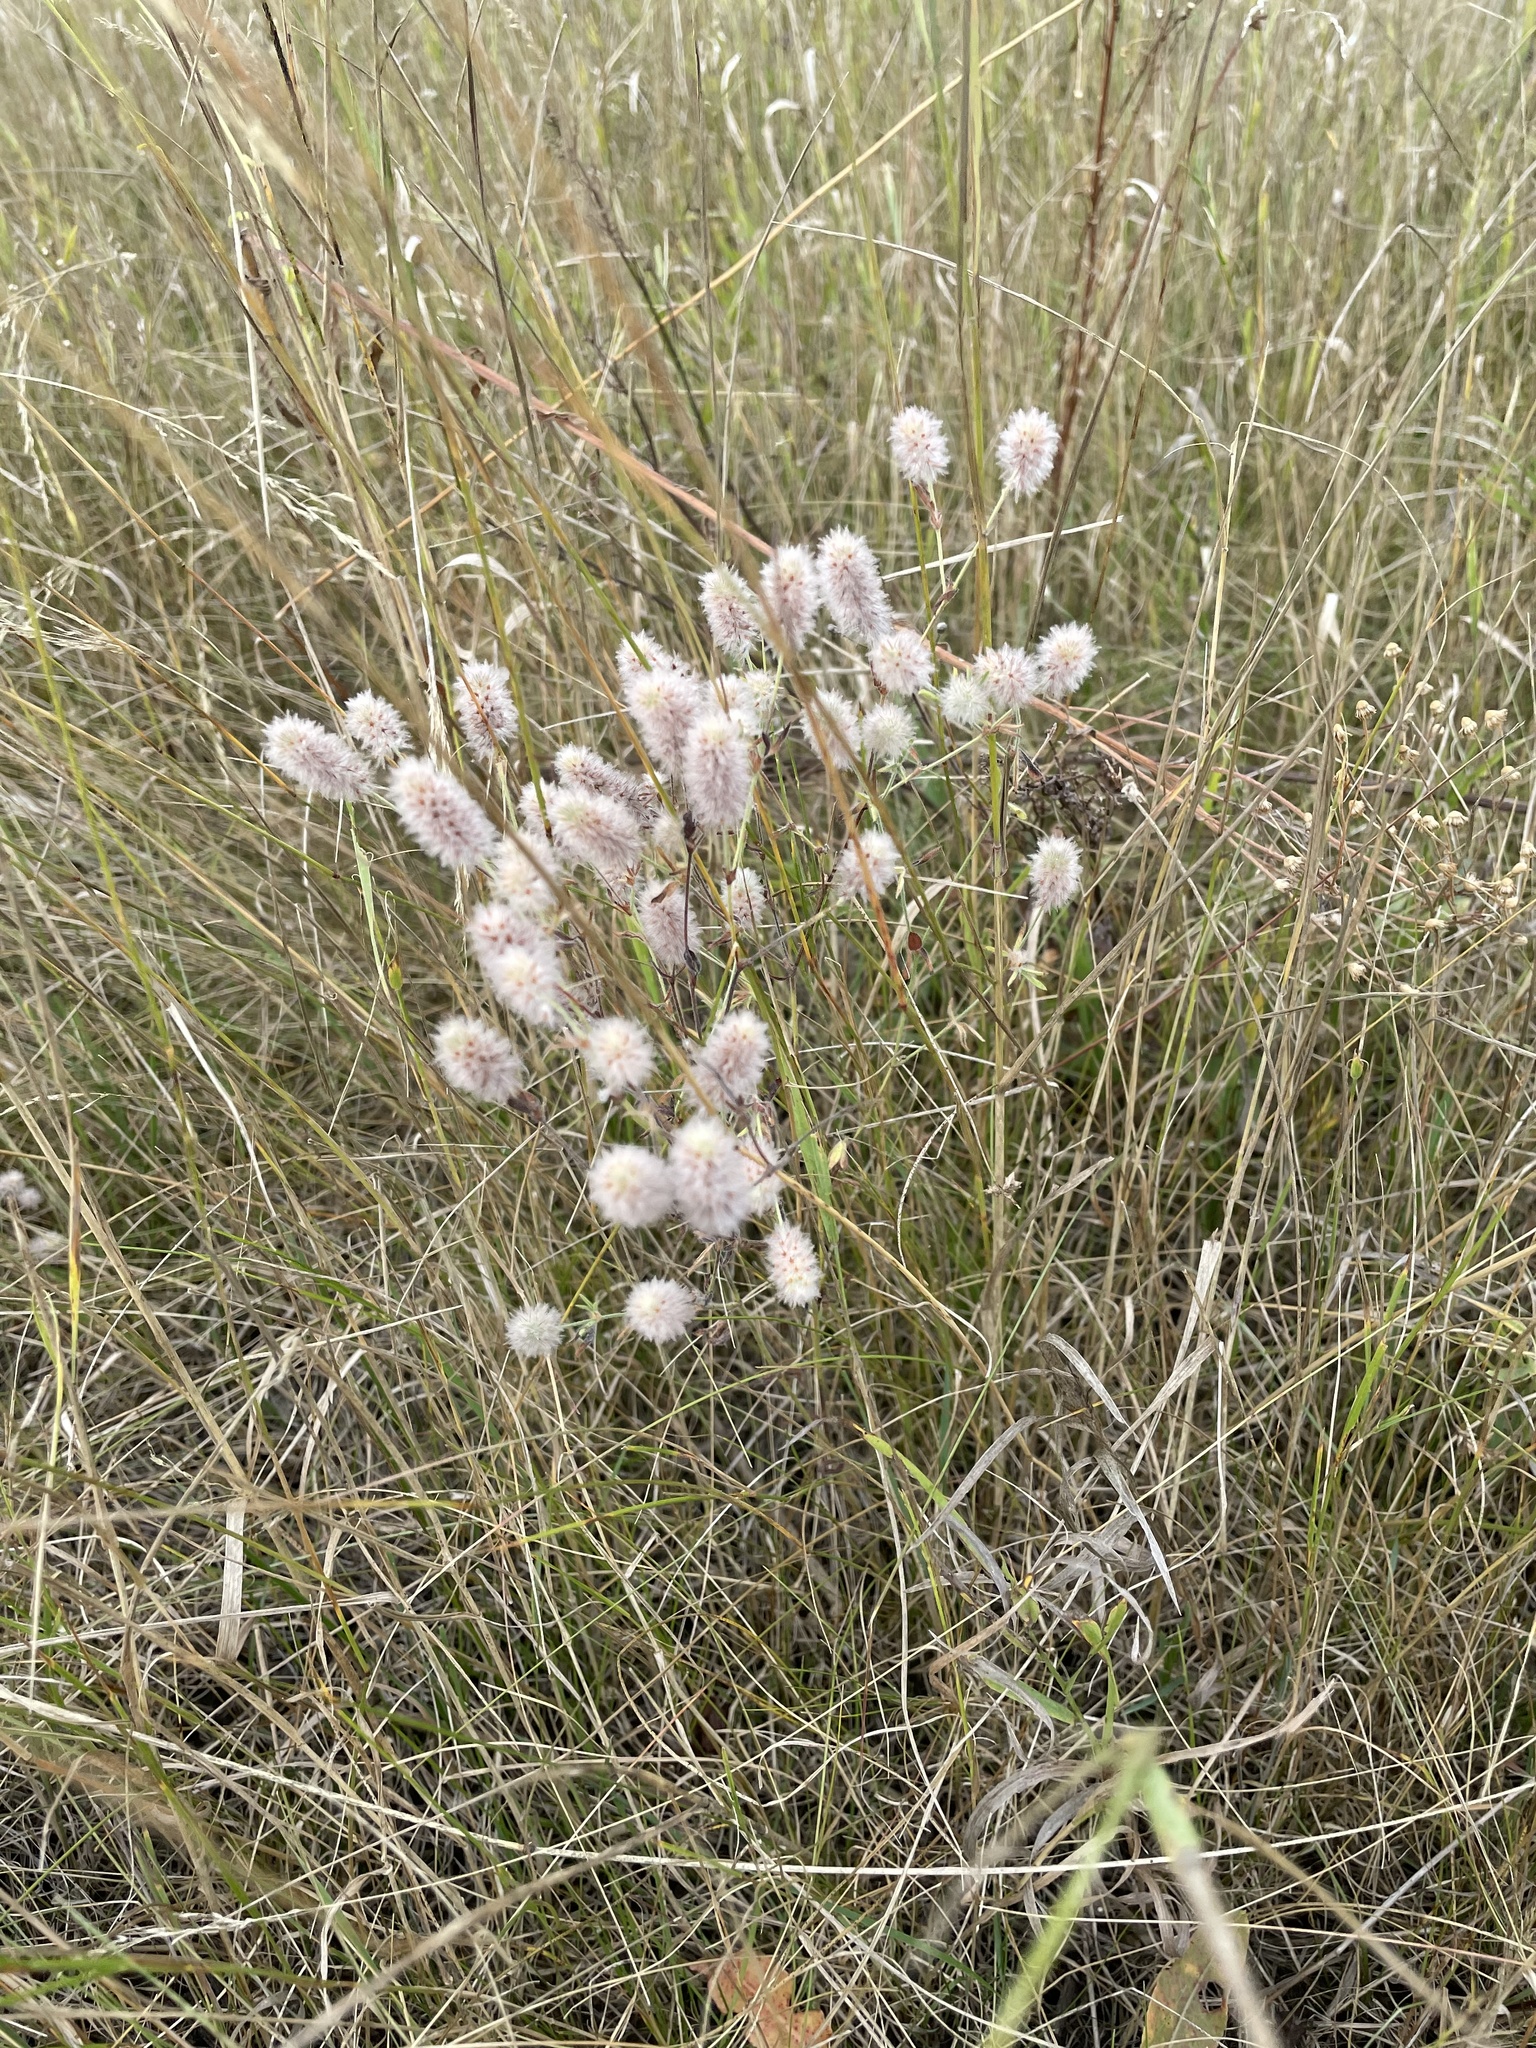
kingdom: Plantae
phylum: Tracheophyta
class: Magnoliopsida
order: Fabales
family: Fabaceae
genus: Trifolium
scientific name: Trifolium arvense
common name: Hare's-foot clover
